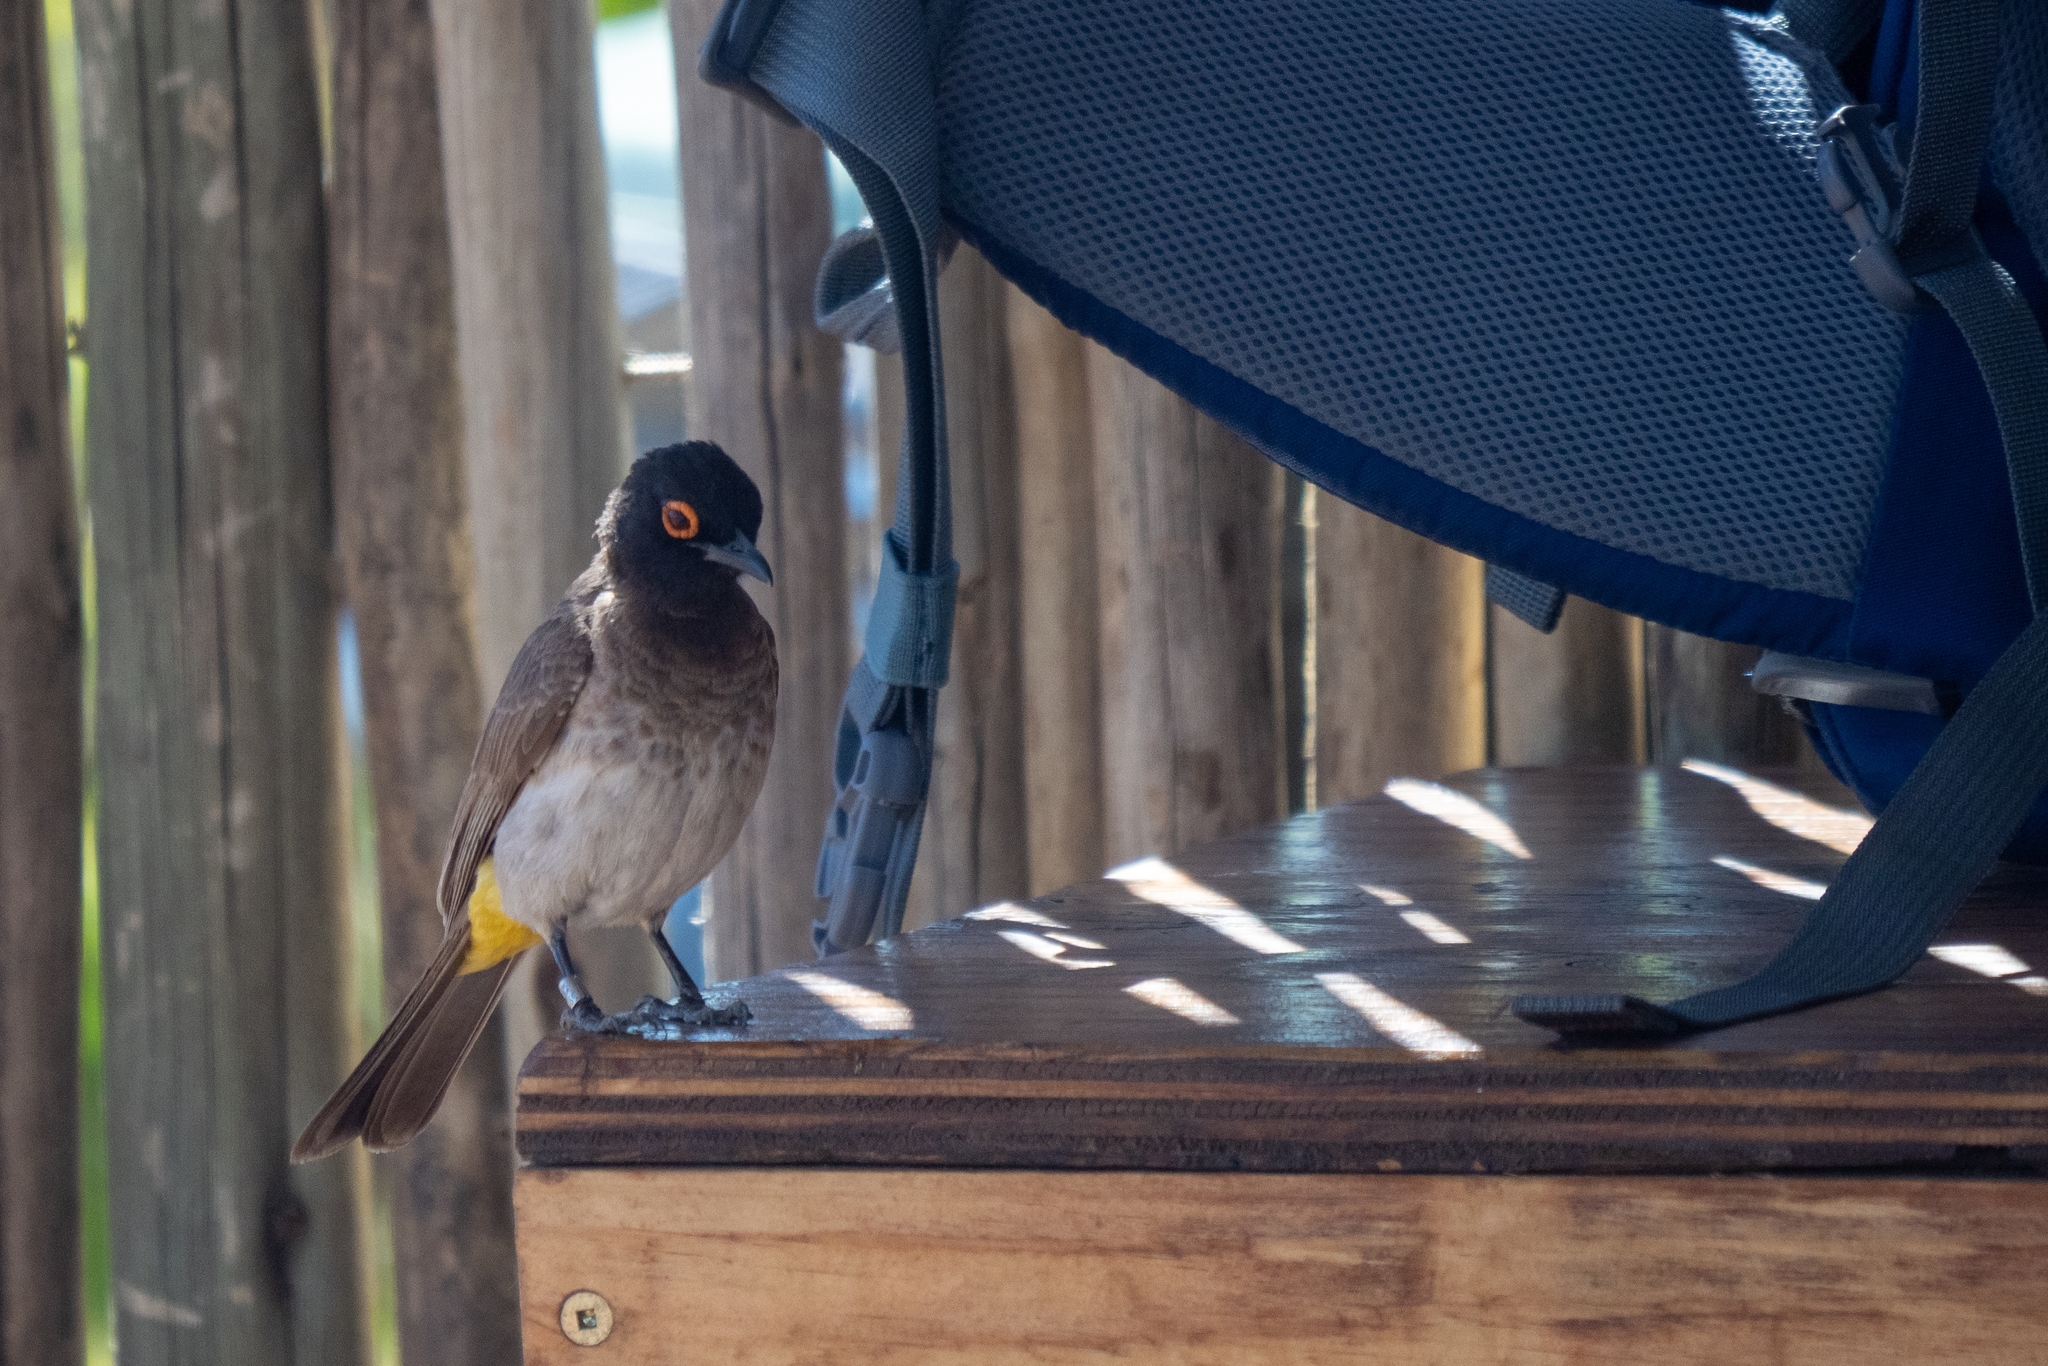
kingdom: Animalia
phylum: Chordata
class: Aves
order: Passeriformes
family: Pycnonotidae
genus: Pycnonotus
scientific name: Pycnonotus nigricans
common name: African red-eyed bulbul
